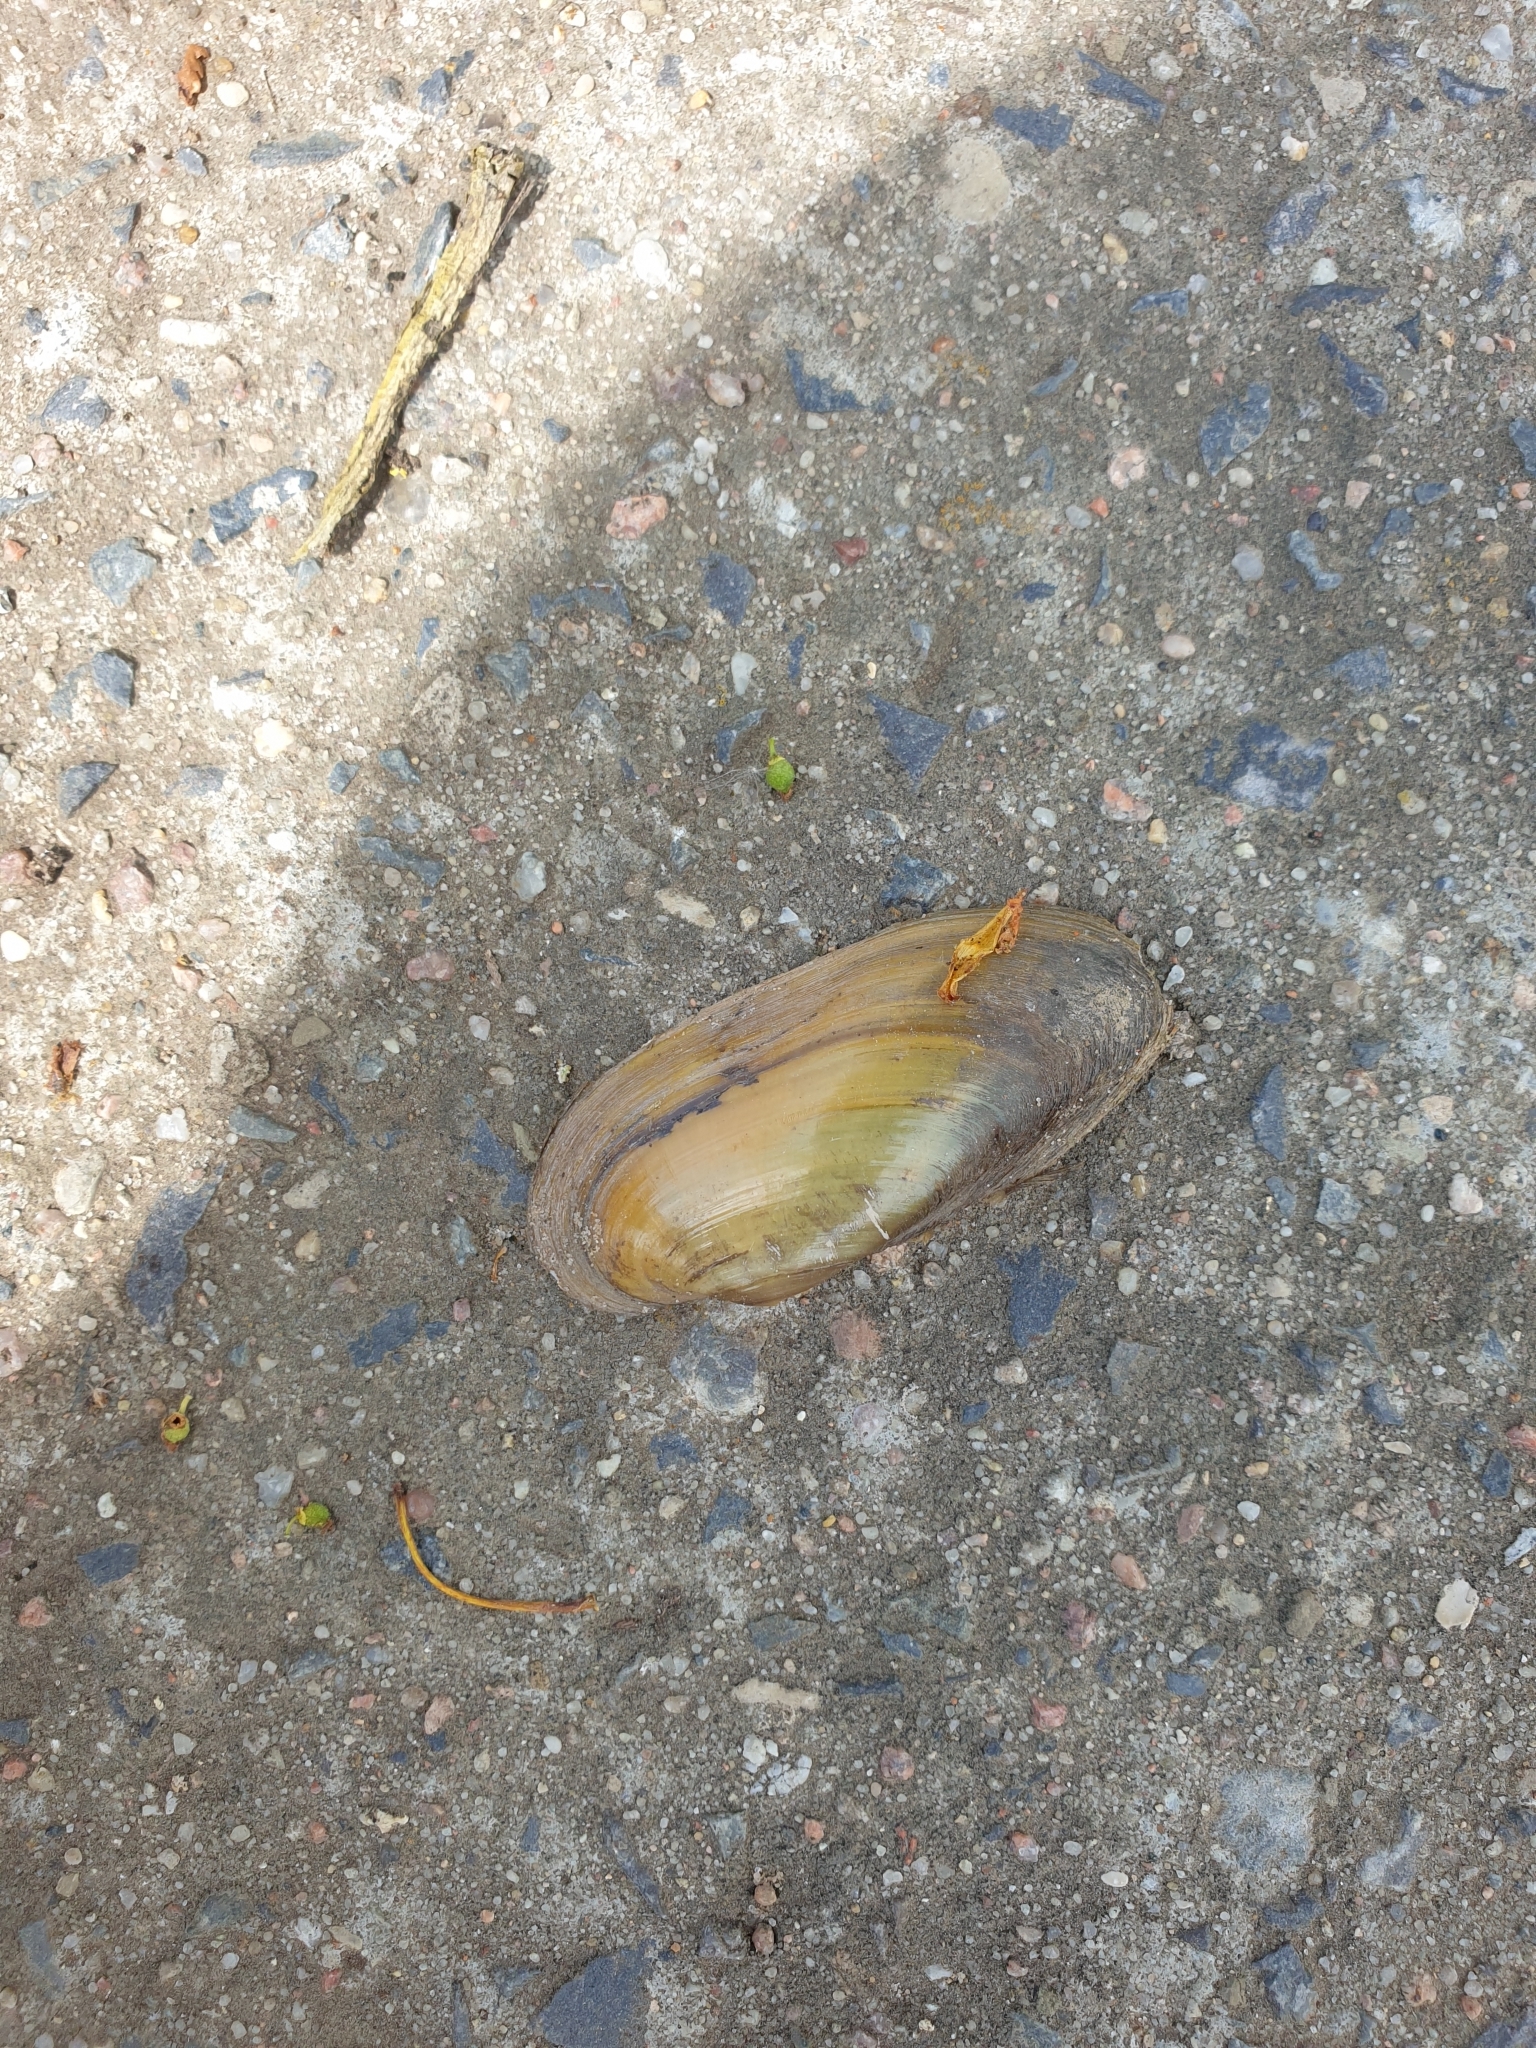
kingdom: Animalia
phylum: Mollusca
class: Bivalvia
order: Unionida
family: Unionidae
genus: Unio
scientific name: Unio pictorum
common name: Painter's mussel
